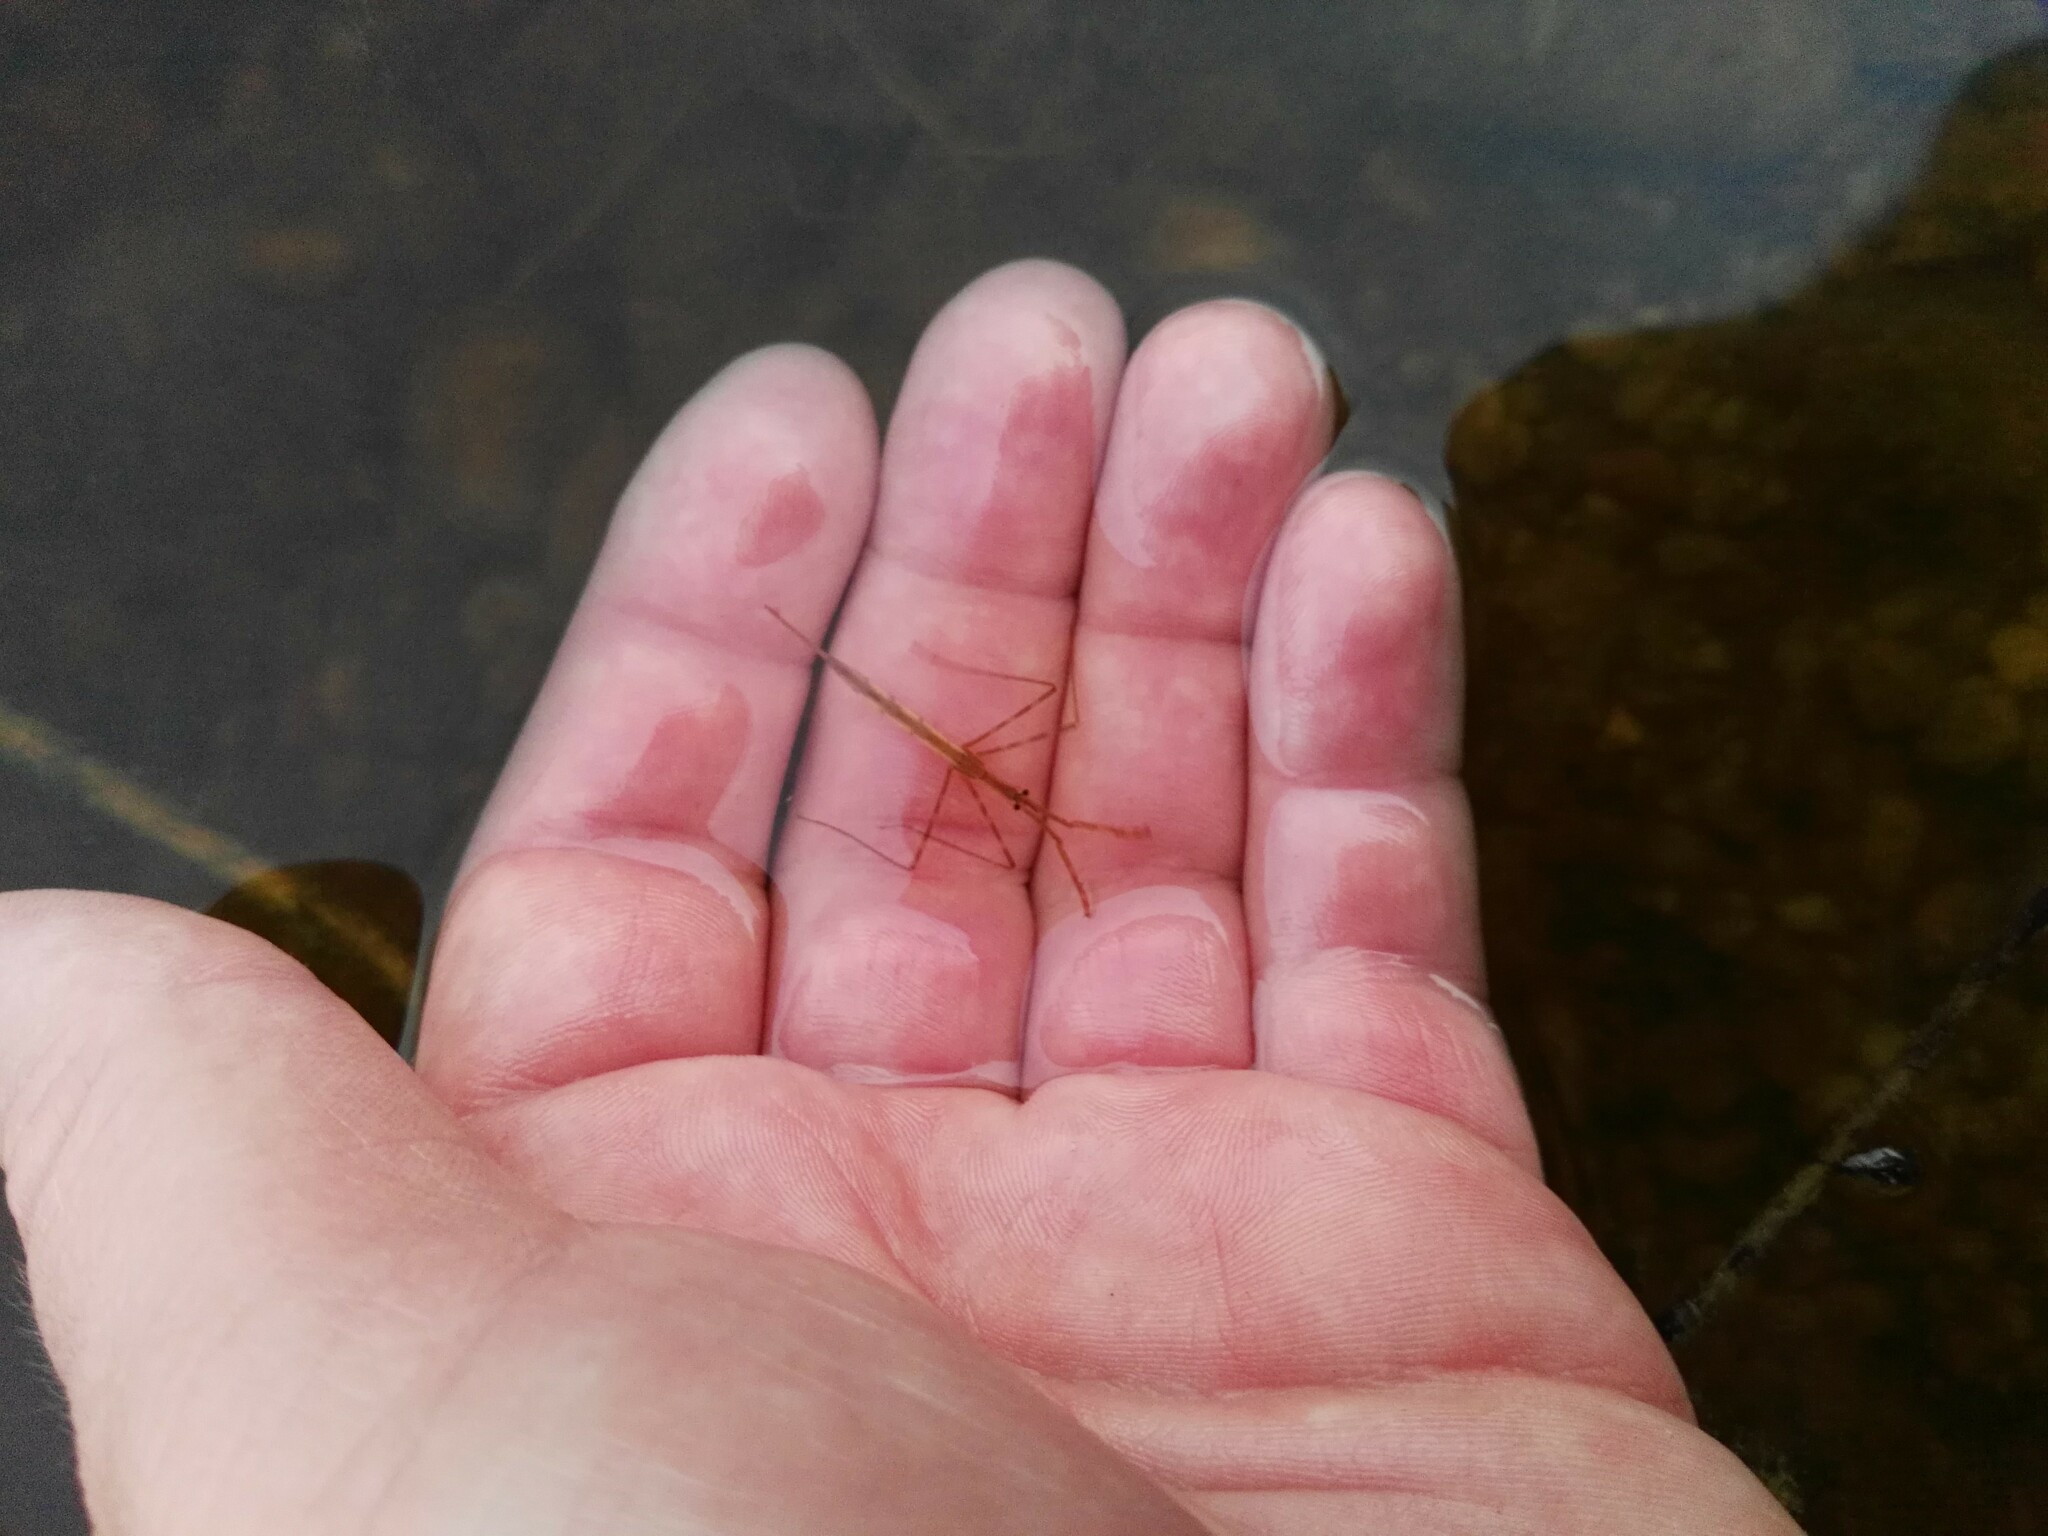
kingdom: Animalia
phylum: Arthropoda
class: Insecta
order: Hemiptera
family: Nepidae
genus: Ranatra
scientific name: Ranatra linearis
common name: Water stick insect
